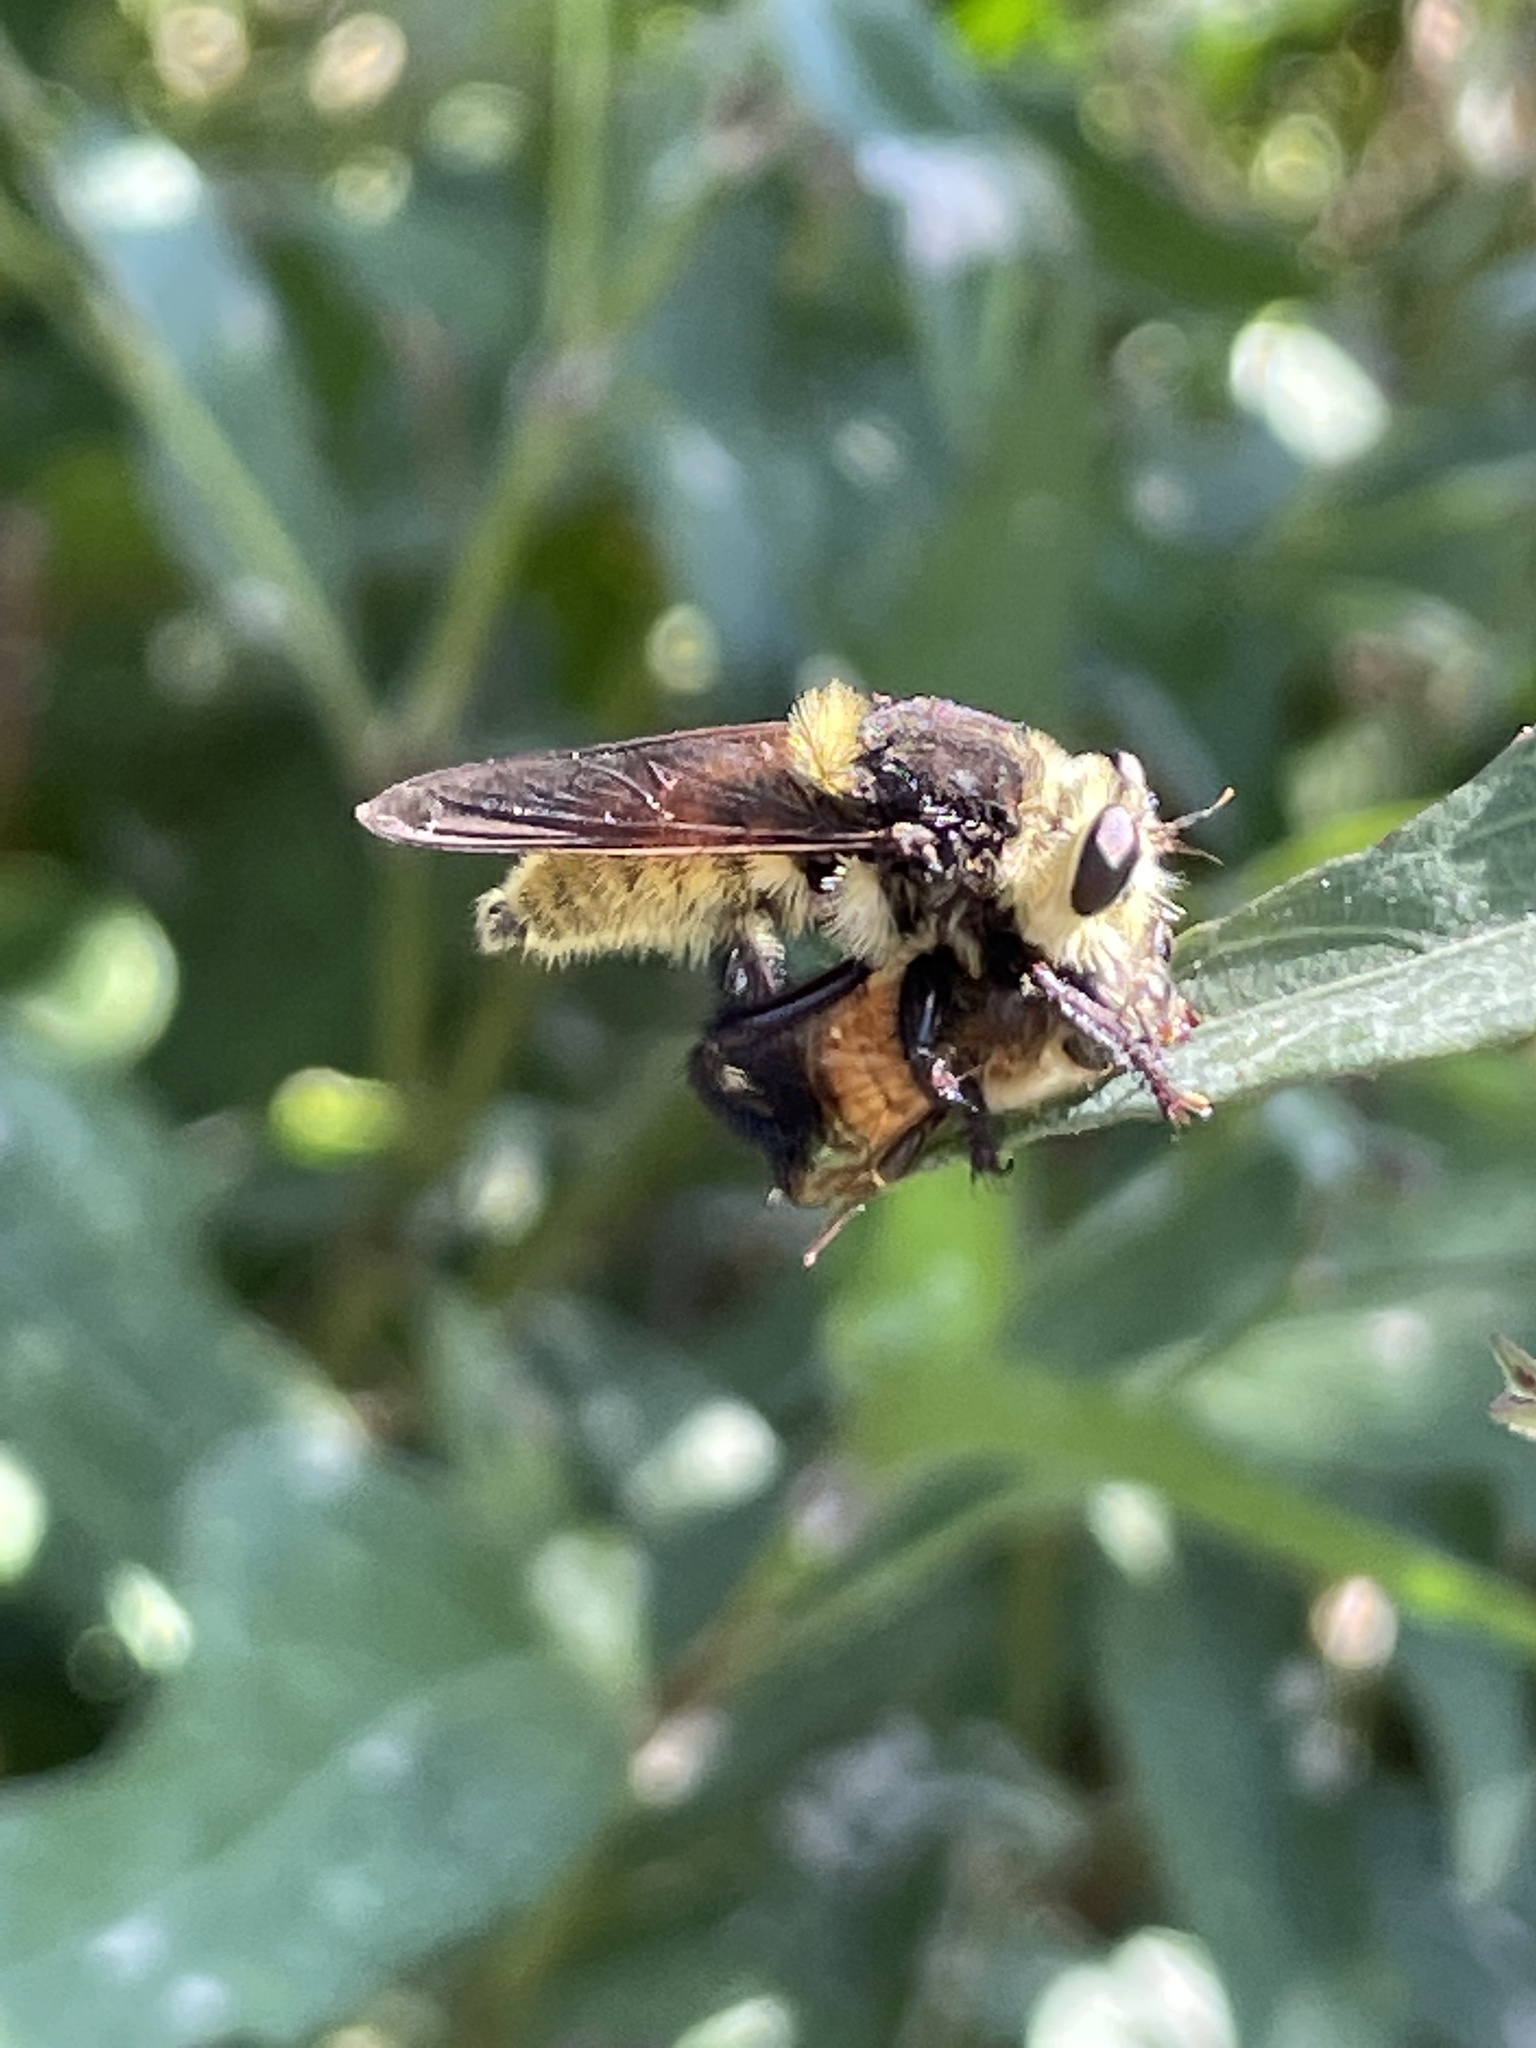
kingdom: Animalia
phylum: Arthropoda
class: Insecta
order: Diptera
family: Asilidae
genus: Mallophora
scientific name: Mallophora fautrix
